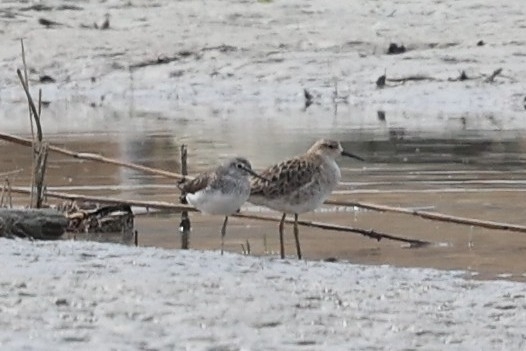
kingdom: Animalia
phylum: Chordata
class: Aves
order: Charadriiformes
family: Scolopacidae
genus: Tringa
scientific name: Tringa ochropus
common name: Green sandpiper
